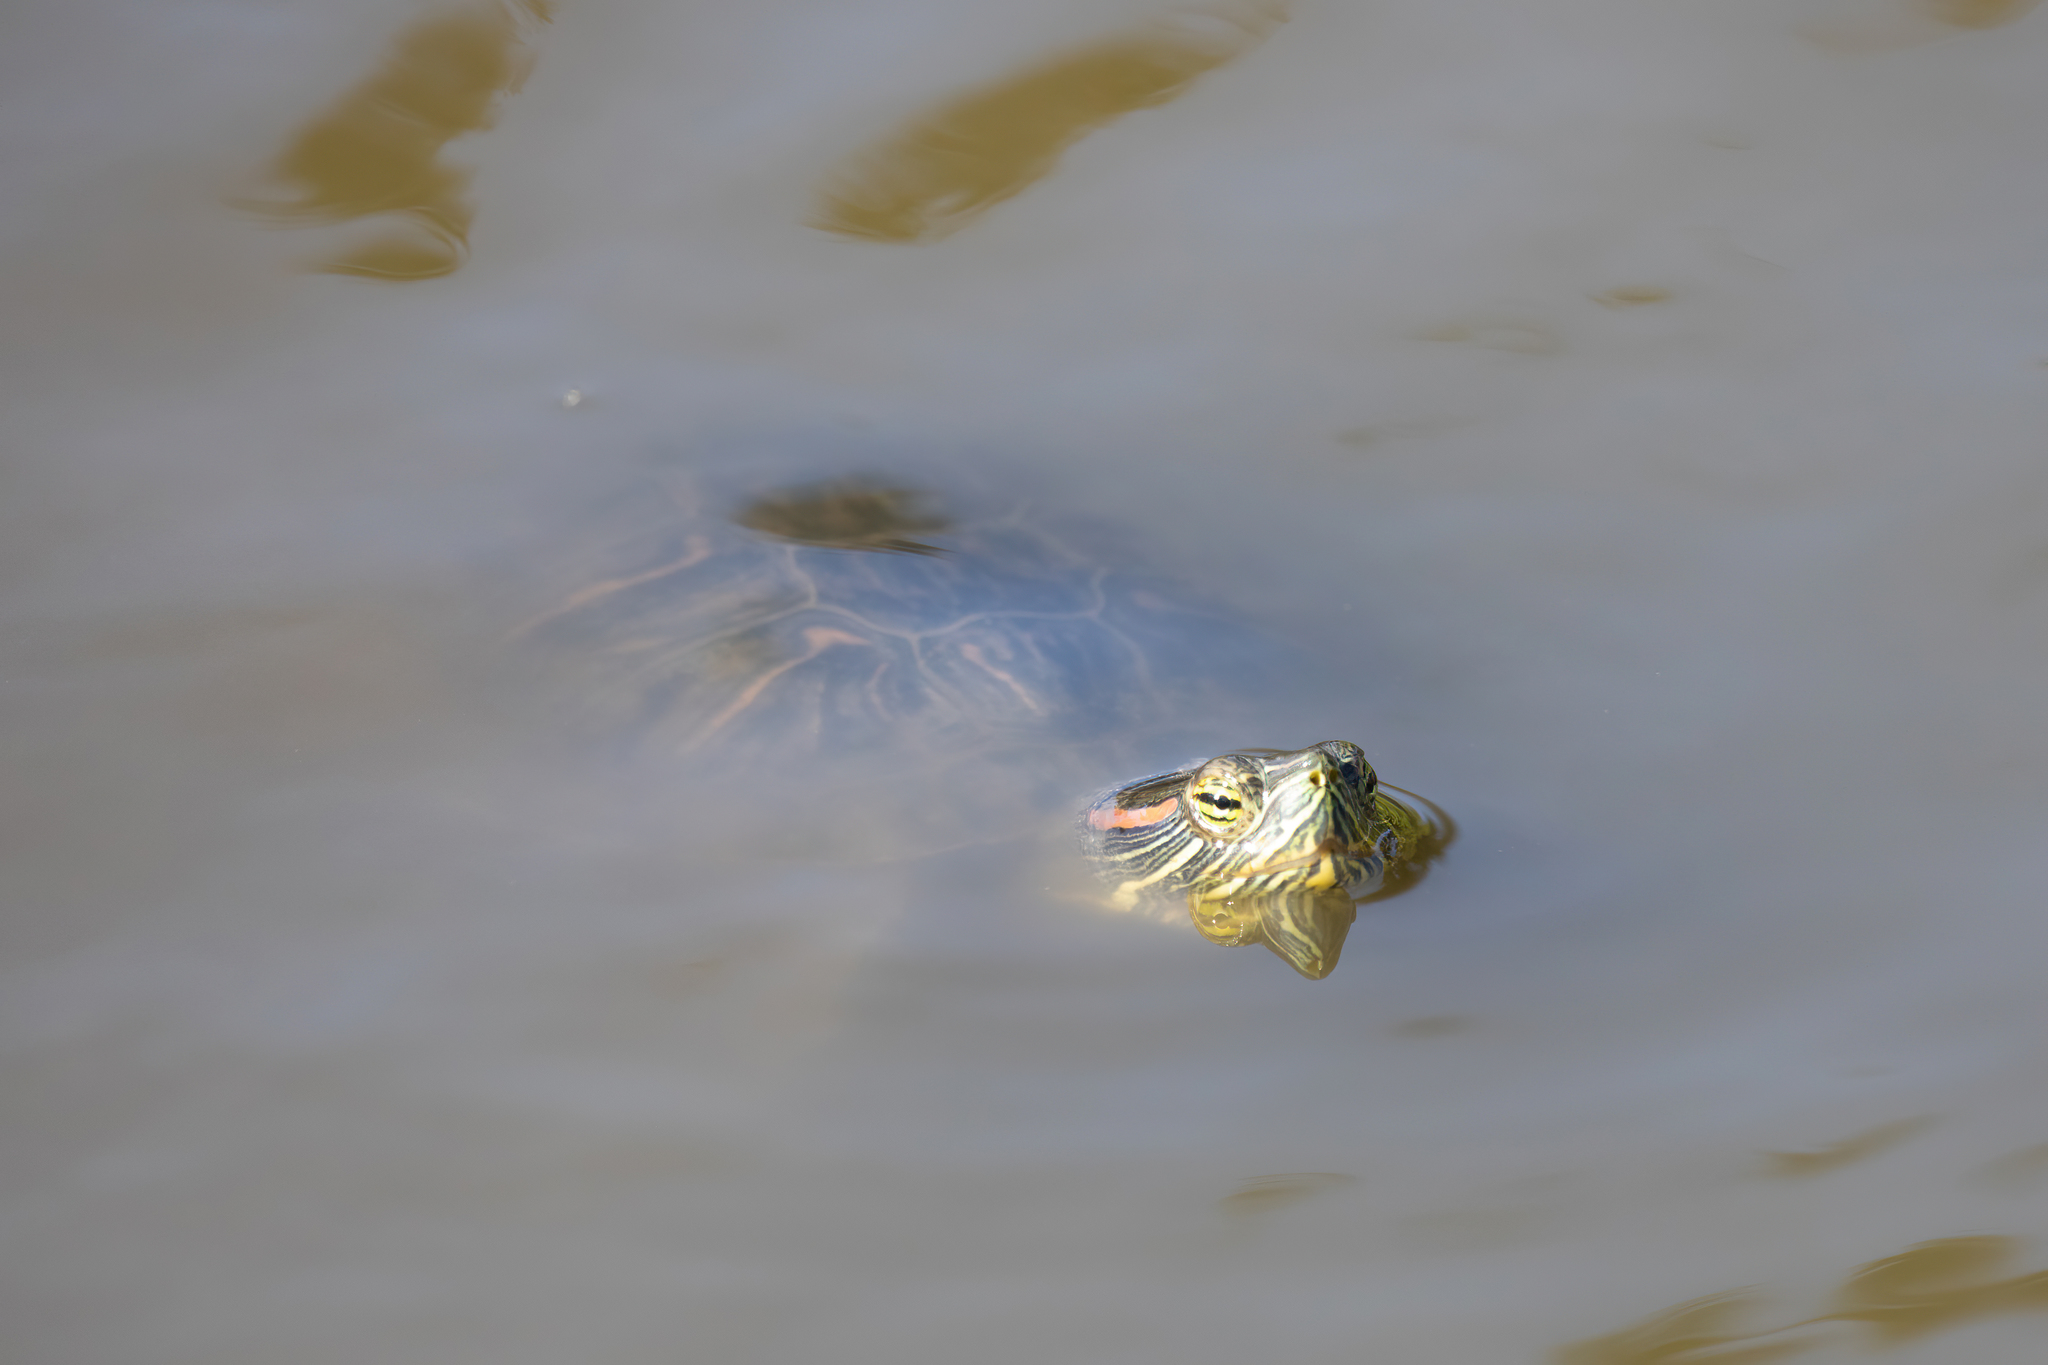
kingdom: Animalia
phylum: Chordata
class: Testudines
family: Emydidae
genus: Trachemys
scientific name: Trachemys scripta
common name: Slider
